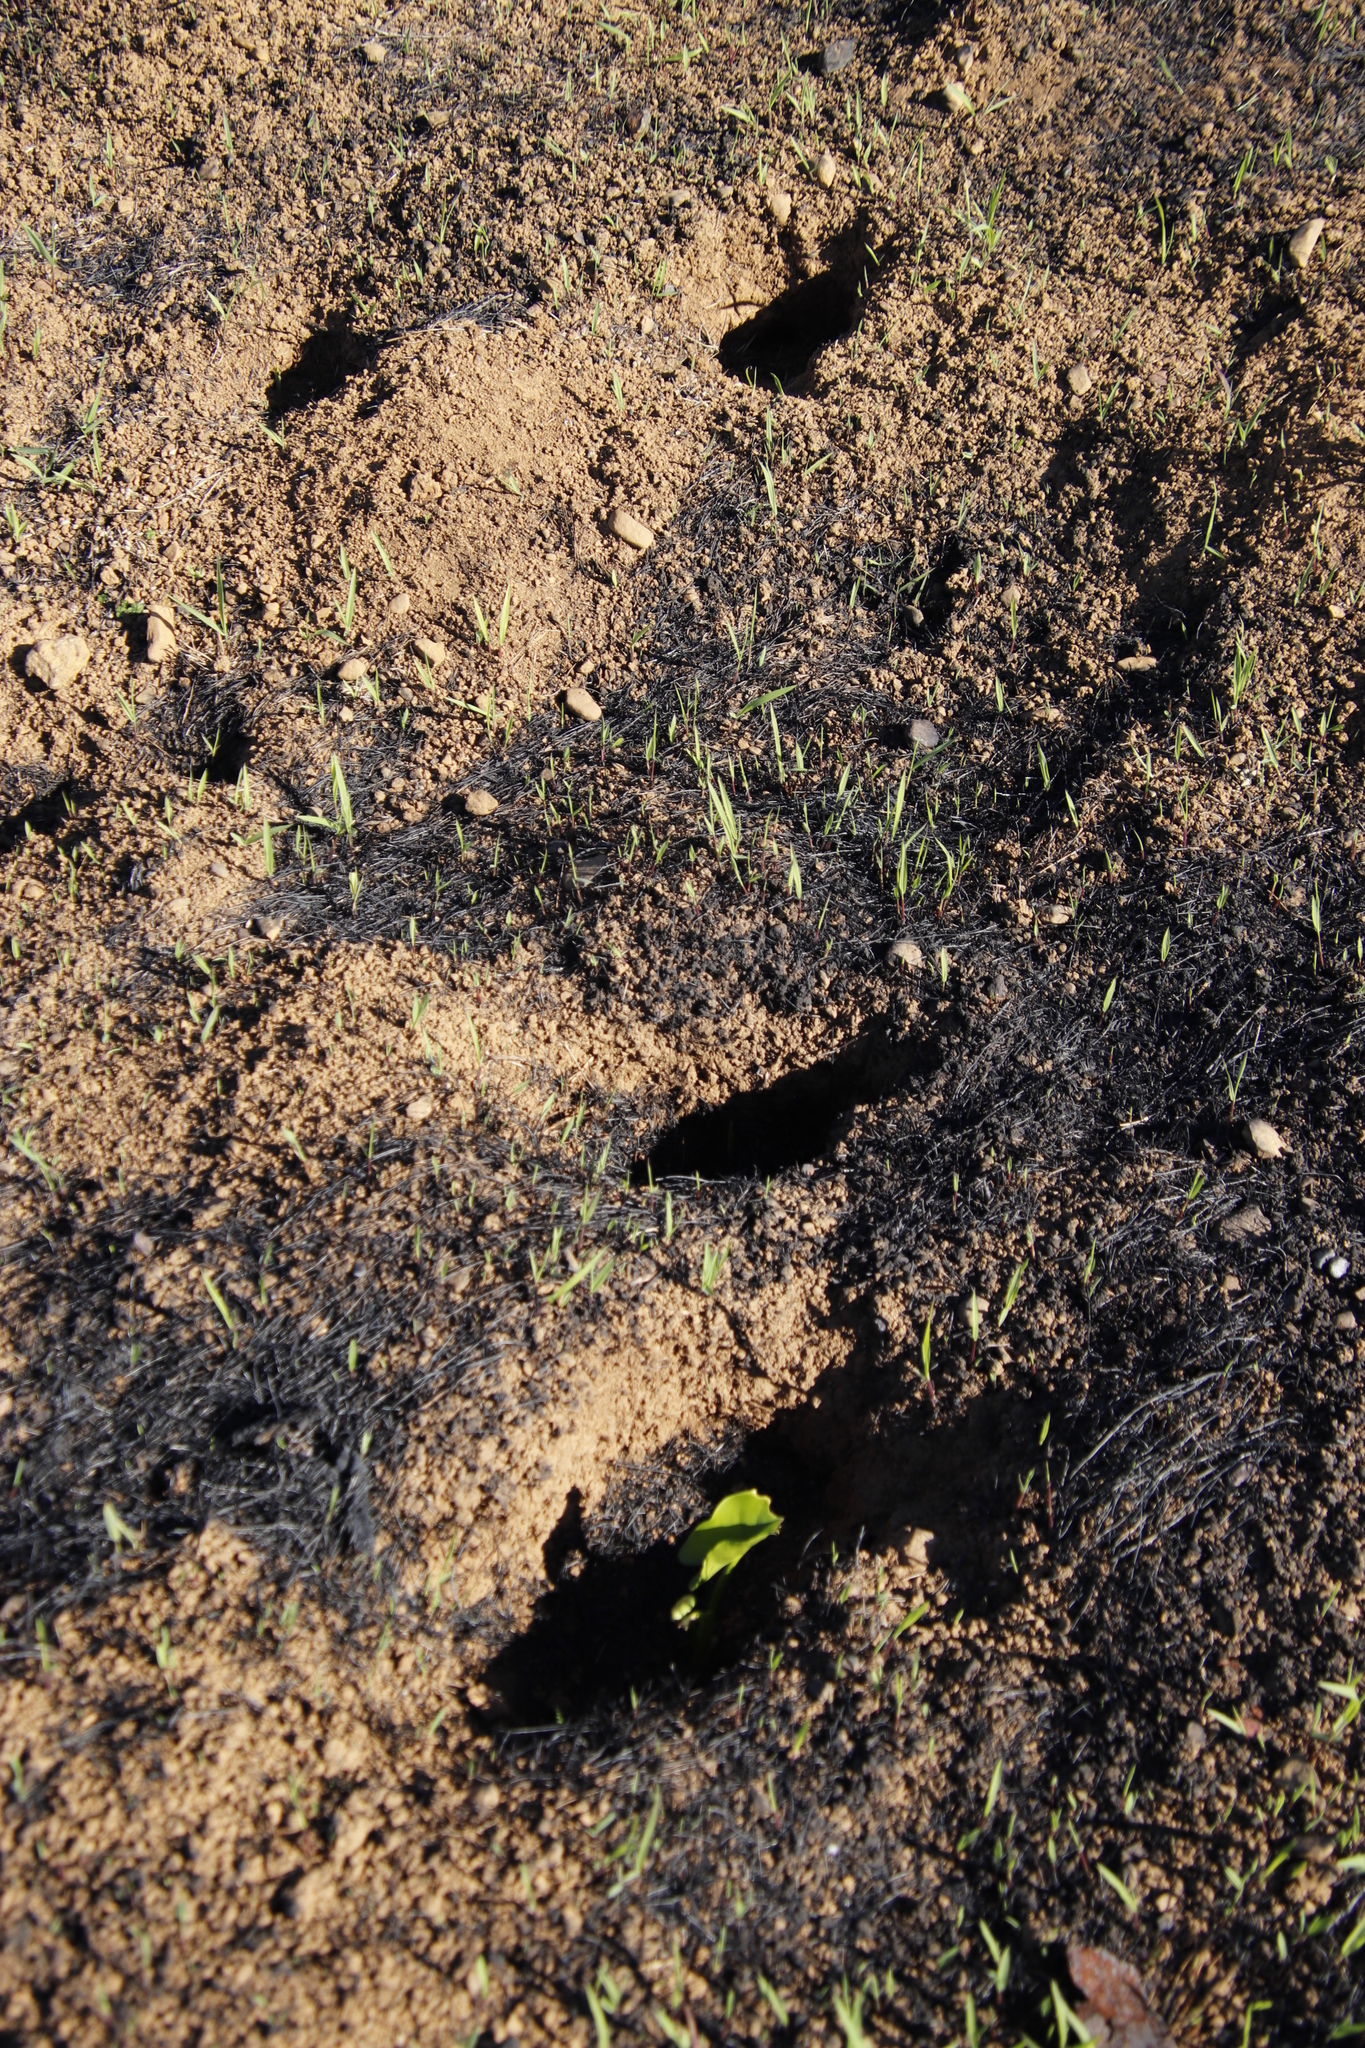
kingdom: Plantae
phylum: Tracheophyta
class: Liliopsida
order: Alismatales
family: Araceae
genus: Zantedeschia
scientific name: Zantedeschia aethiopica
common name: Altar-lily
